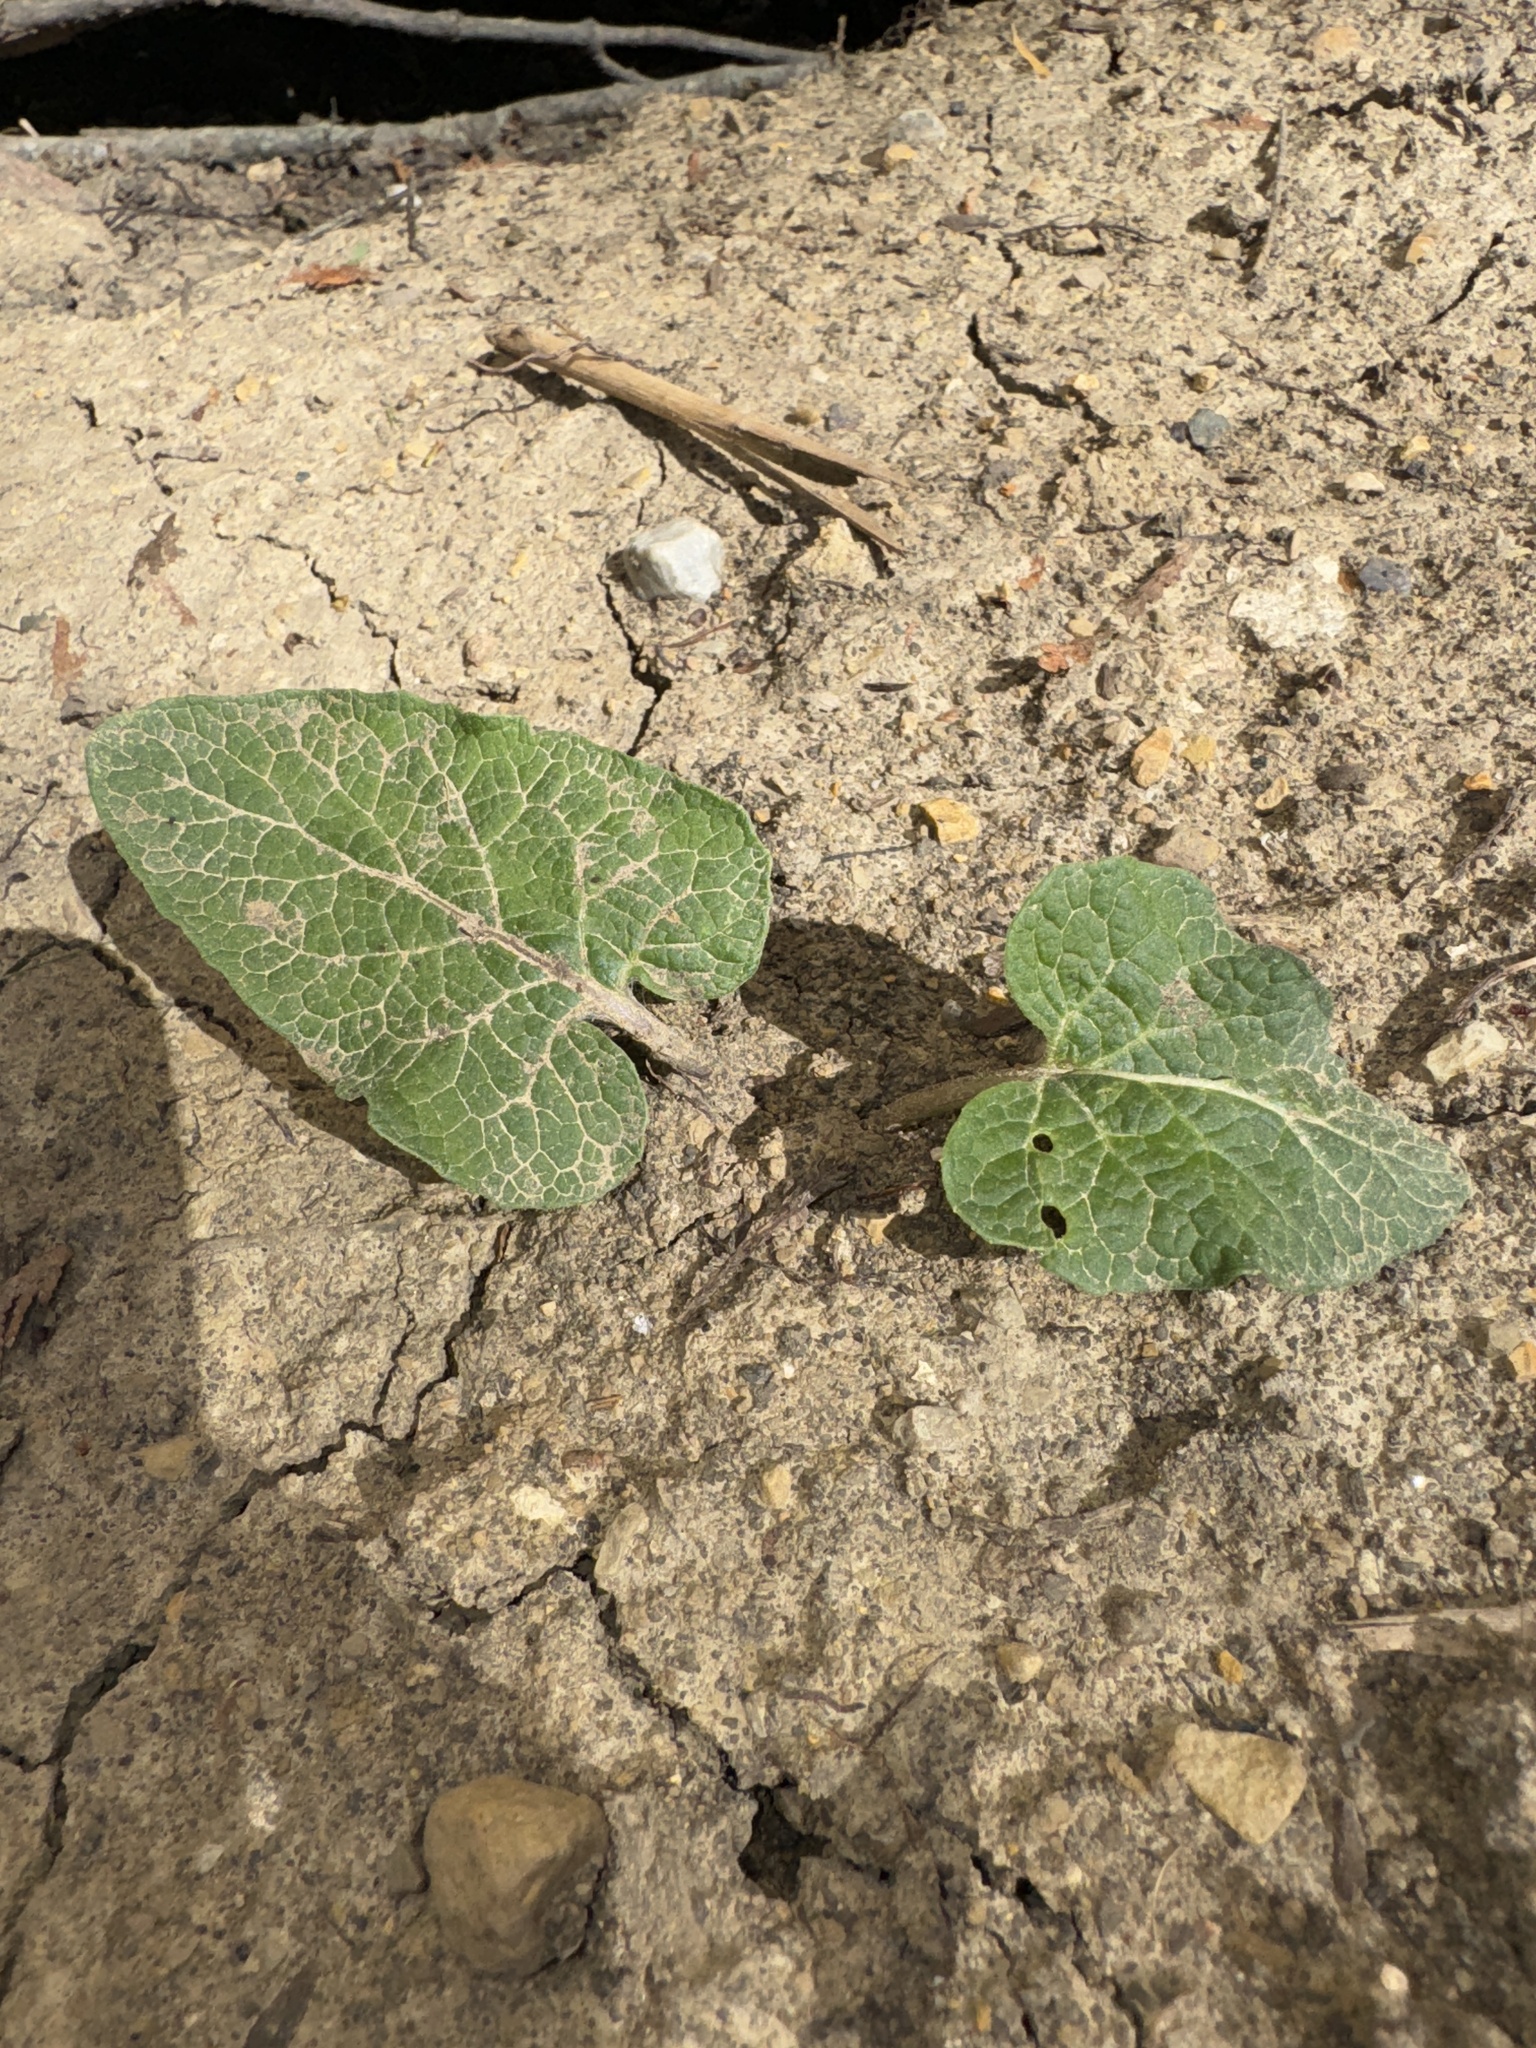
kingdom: Plantae
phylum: Tracheophyta
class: Magnoliopsida
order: Asterales
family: Asteraceae
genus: Arctium
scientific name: Arctium
